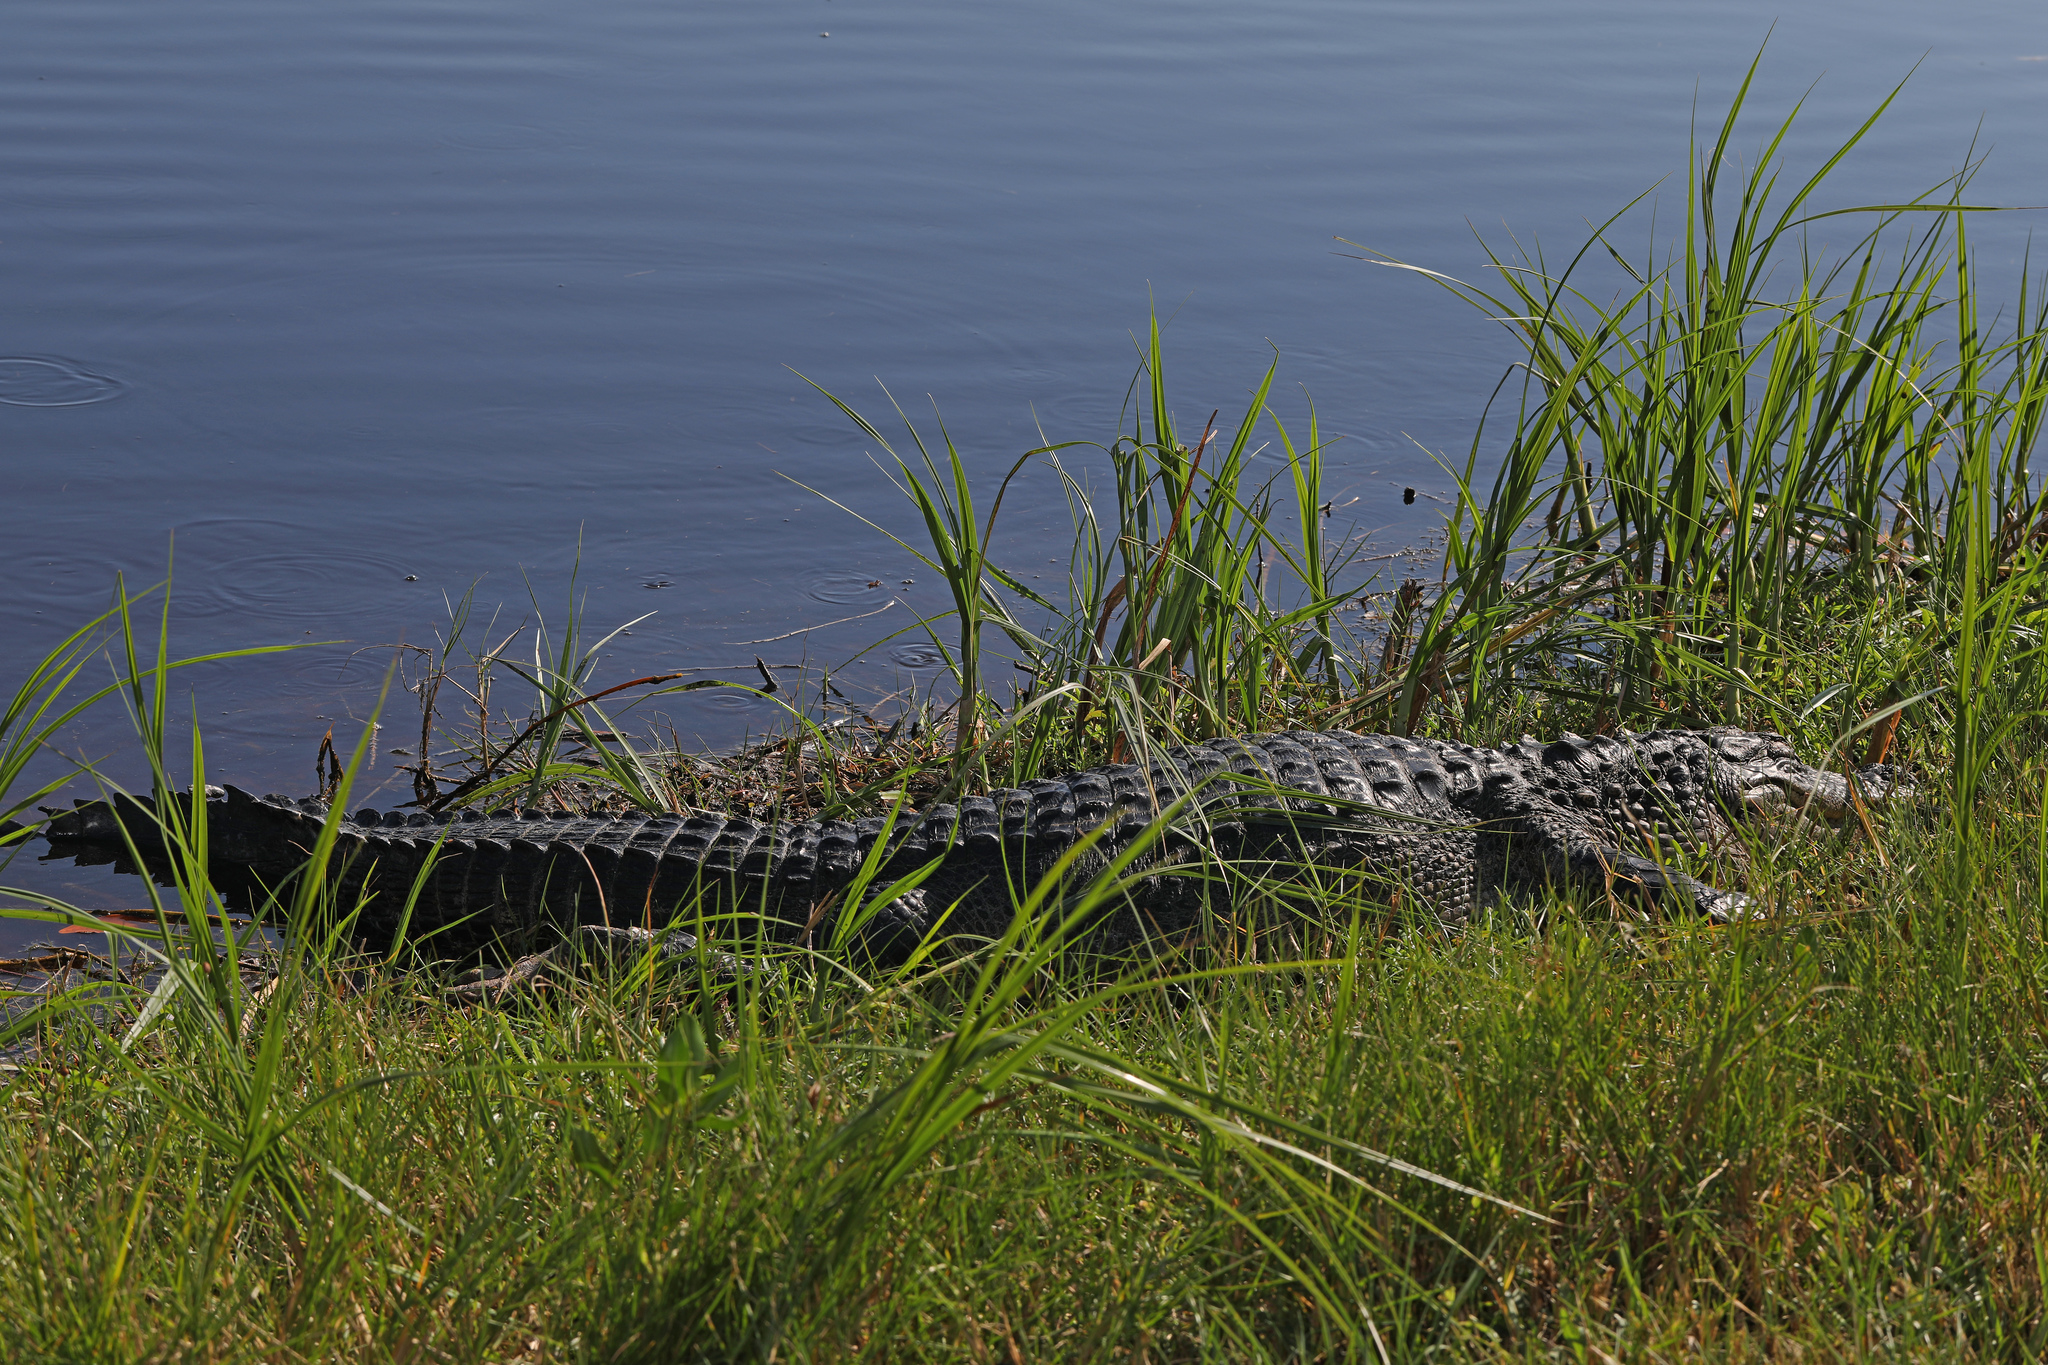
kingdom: Animalia
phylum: Chordata
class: Crocodylia
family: Alligatoridae
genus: Alligator
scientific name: Alligator mississippiensis
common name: American alligator
